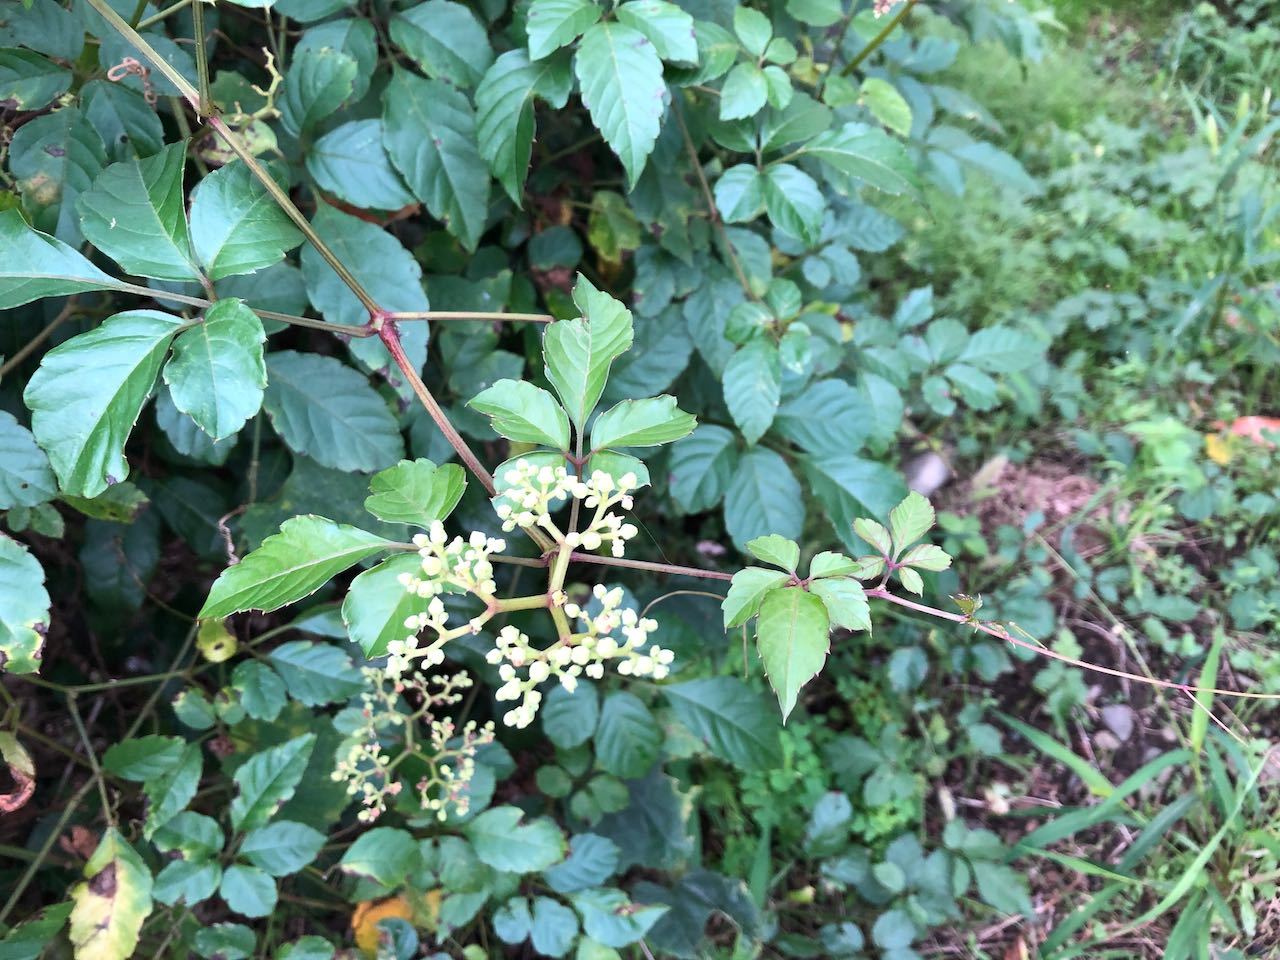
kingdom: Plantae
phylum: Tracheophyta
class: Magnoliopsida
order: Vitales
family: Vitaceae
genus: Causonis
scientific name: Causonis japonica
